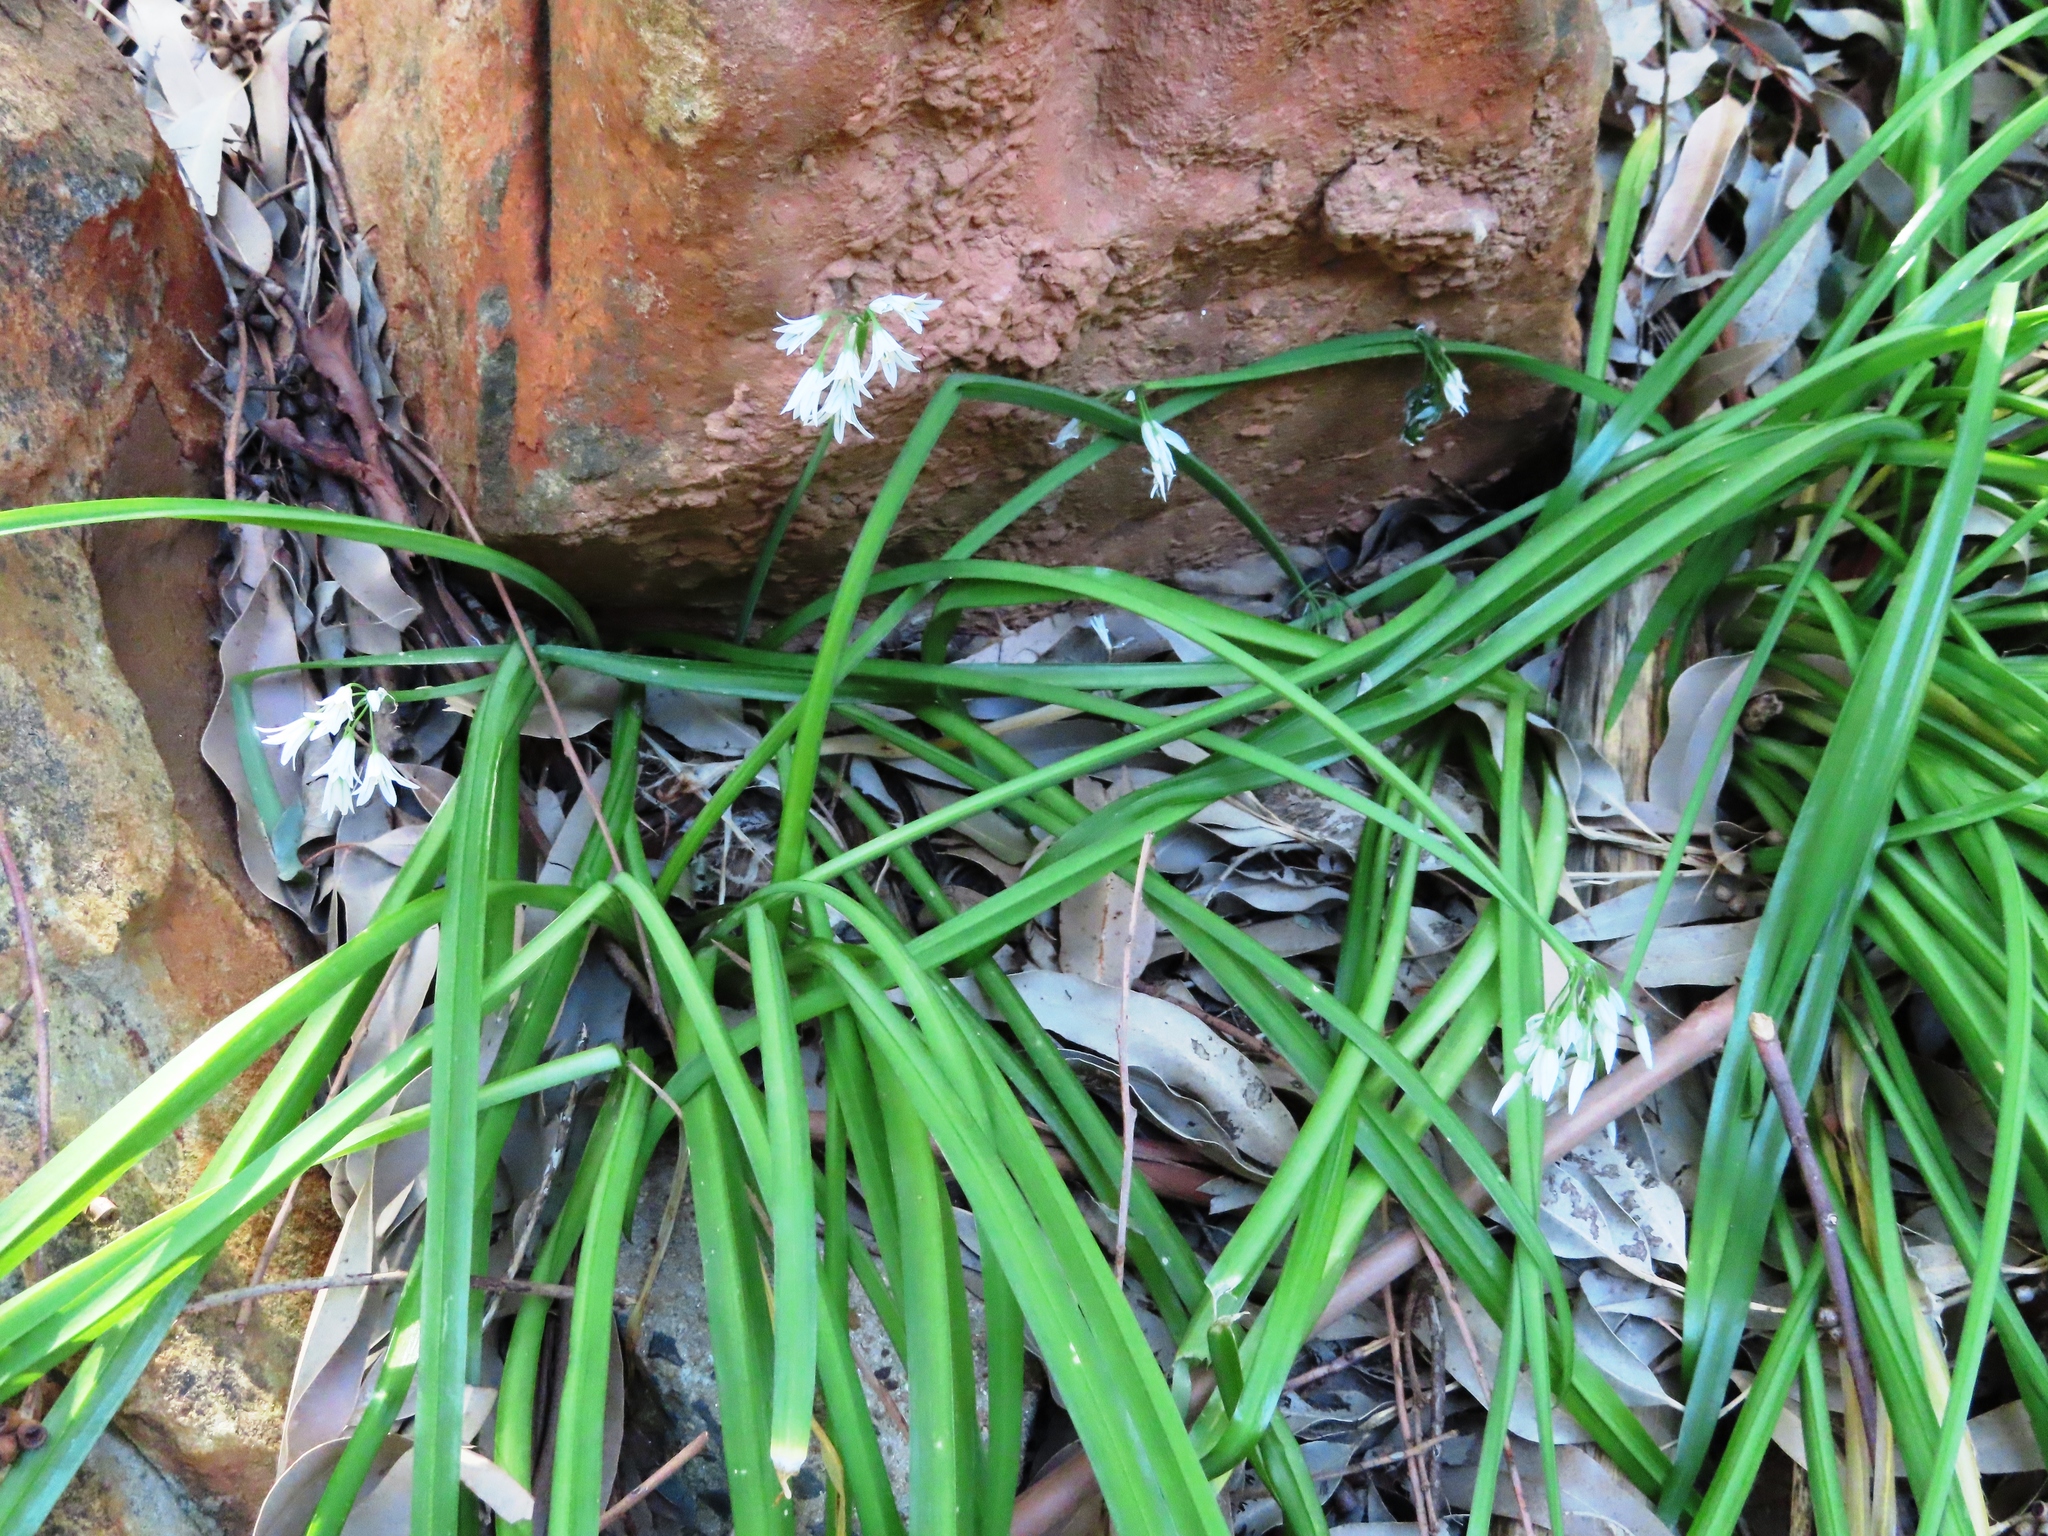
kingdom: Plantae
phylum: Tracheophyta
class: Liliopsida
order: Asparagales
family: Amaryllidaceae
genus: Allium
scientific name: Allium triquetrum
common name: Three-cornered garlic
